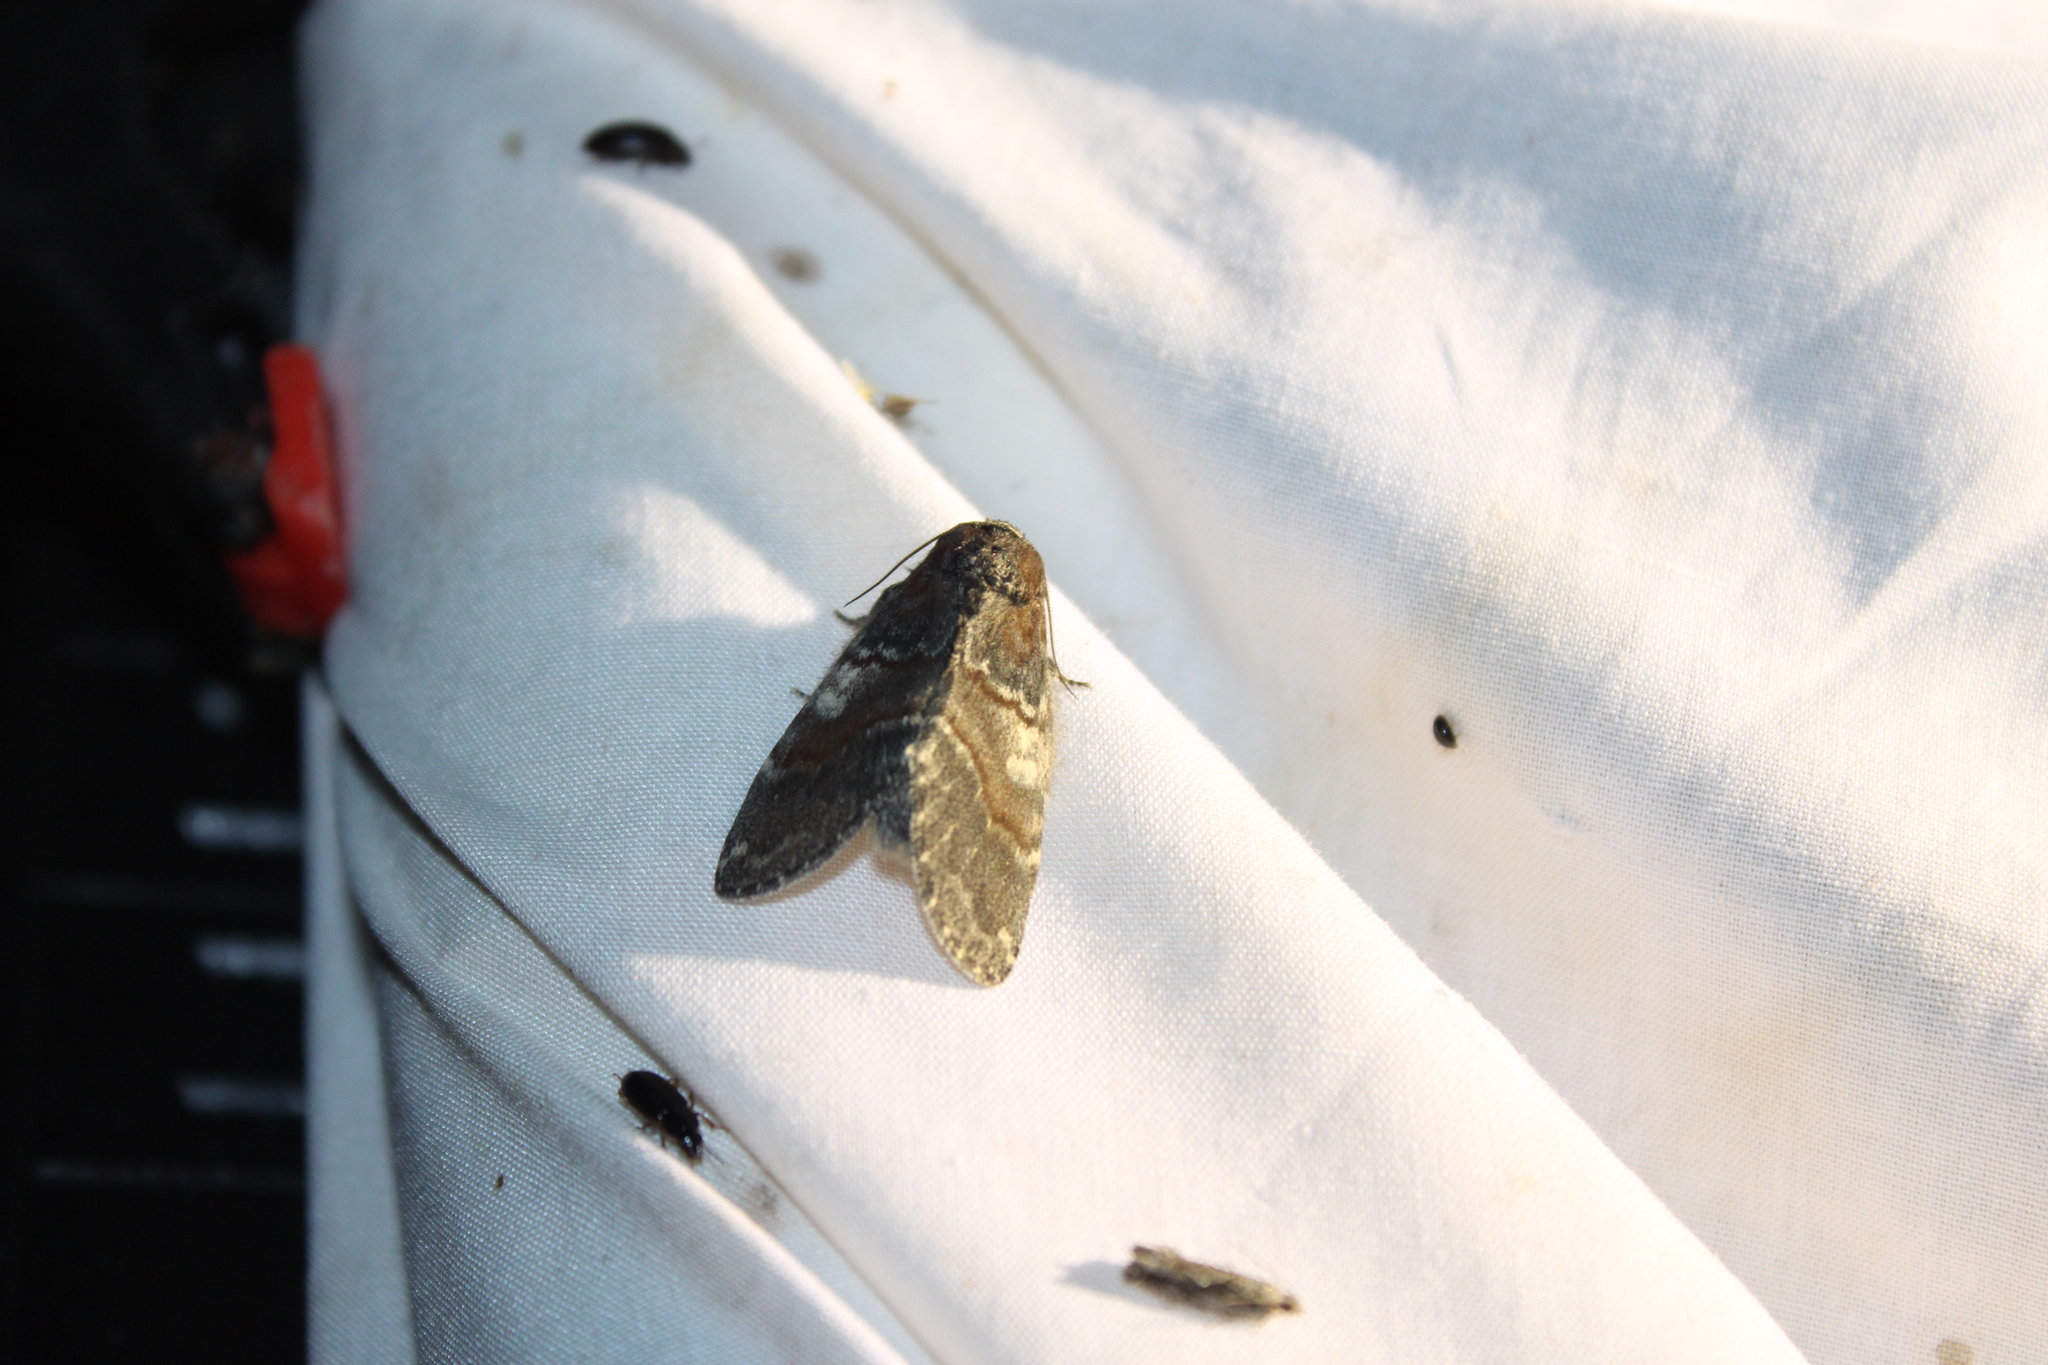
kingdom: Animalia
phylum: Arthropoda
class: Insecta
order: Lepidoptera
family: Notodontidae
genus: Peridea
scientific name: Peridea ferruginea
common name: Chocolate prominent
